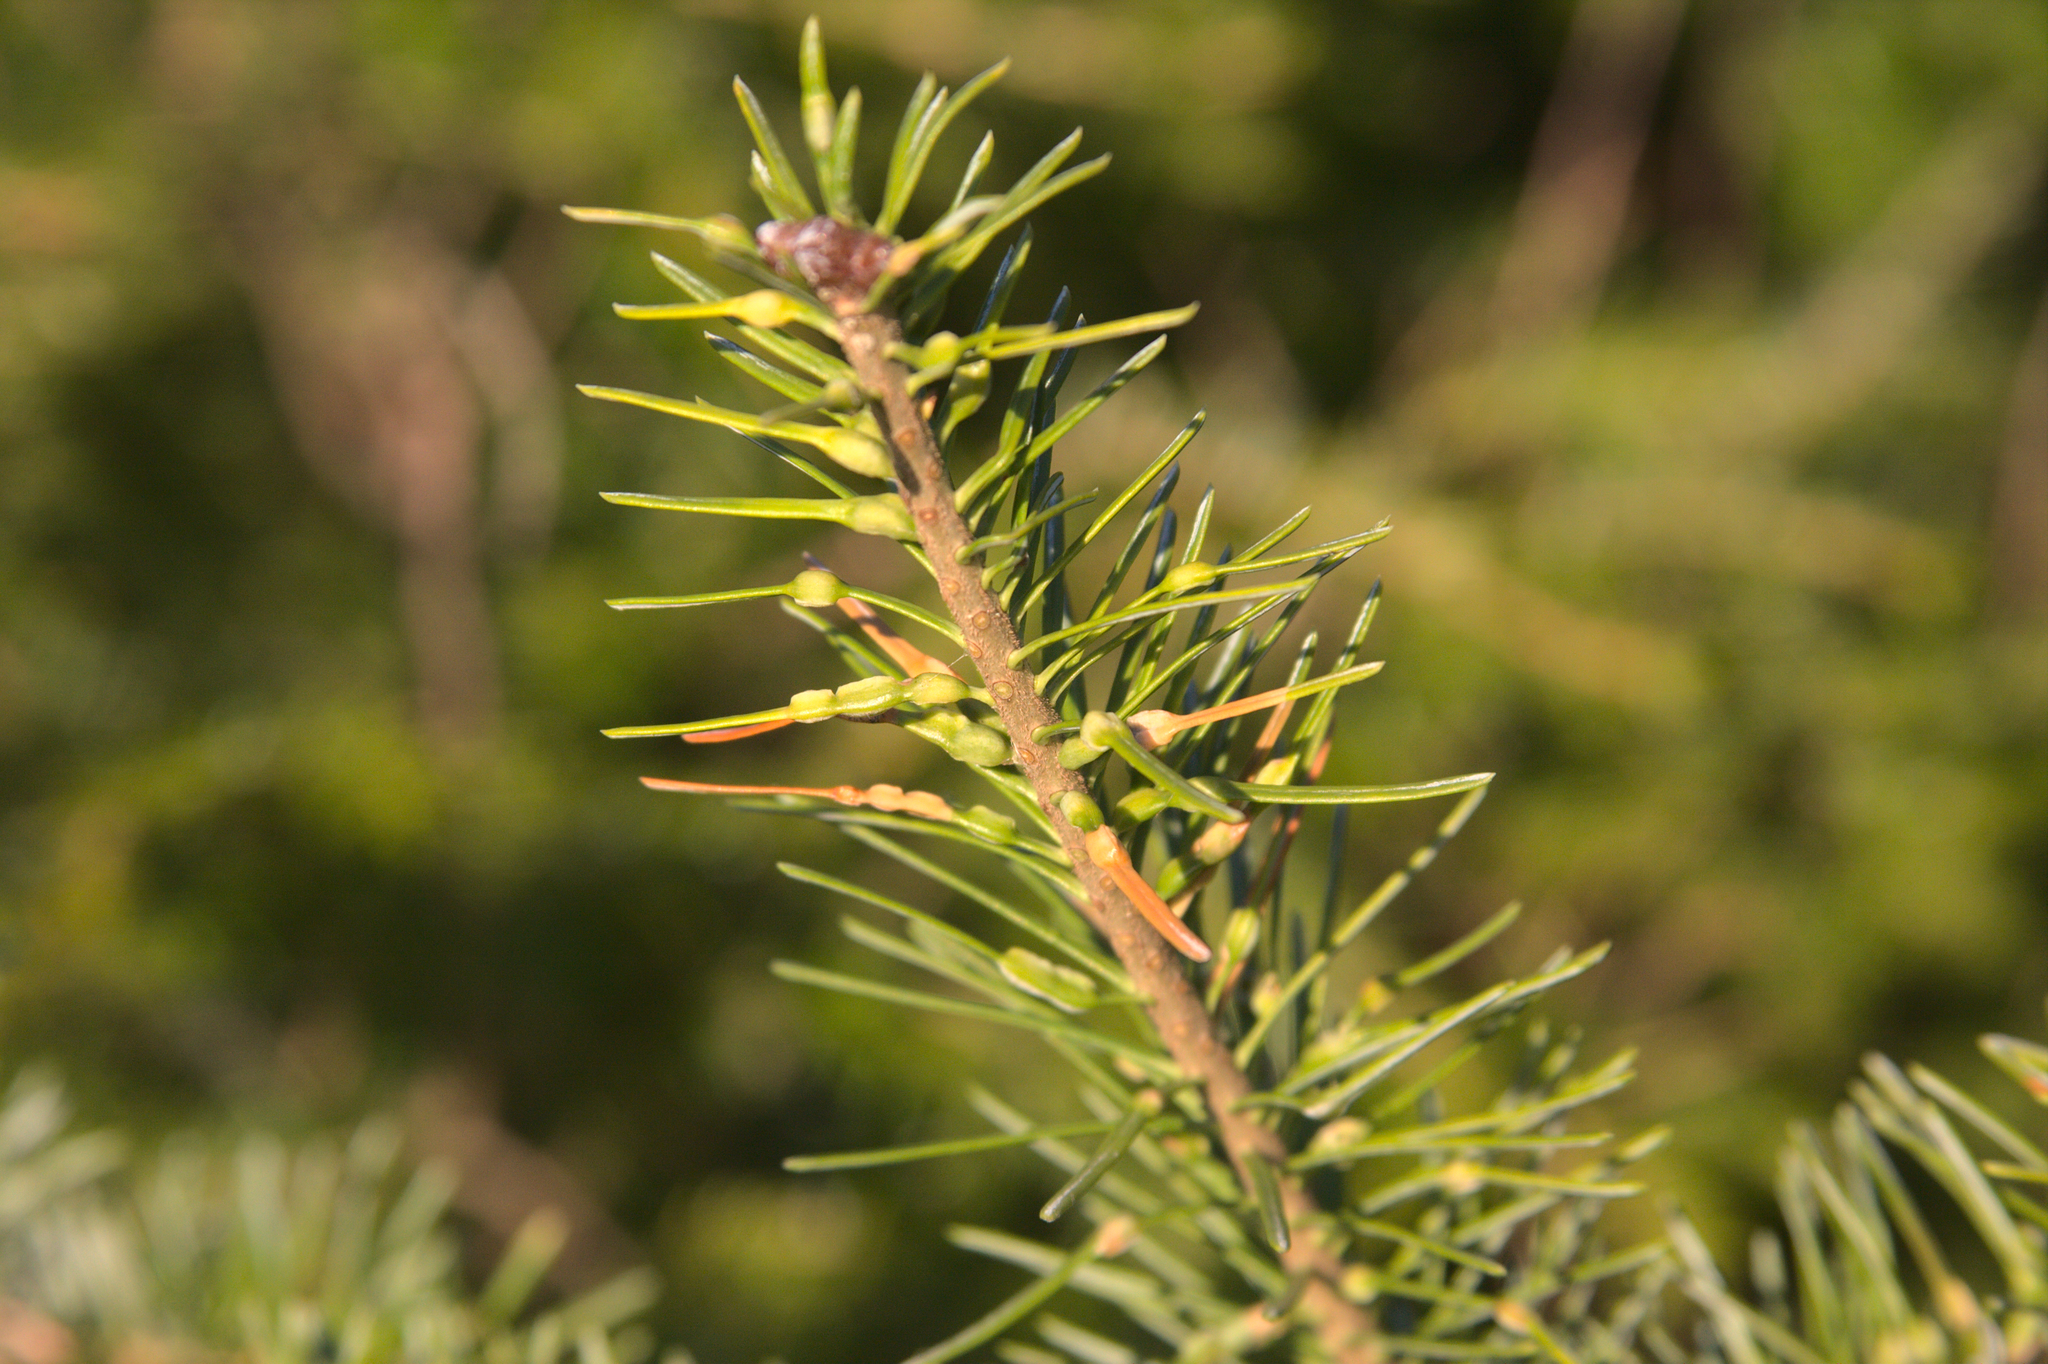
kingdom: Animalia
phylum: Arthropoda
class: Insecta
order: Diptera
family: Cecidomyiidae
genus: Paradiplosis
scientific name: Paradiplosis tumifex
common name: Gall midge
